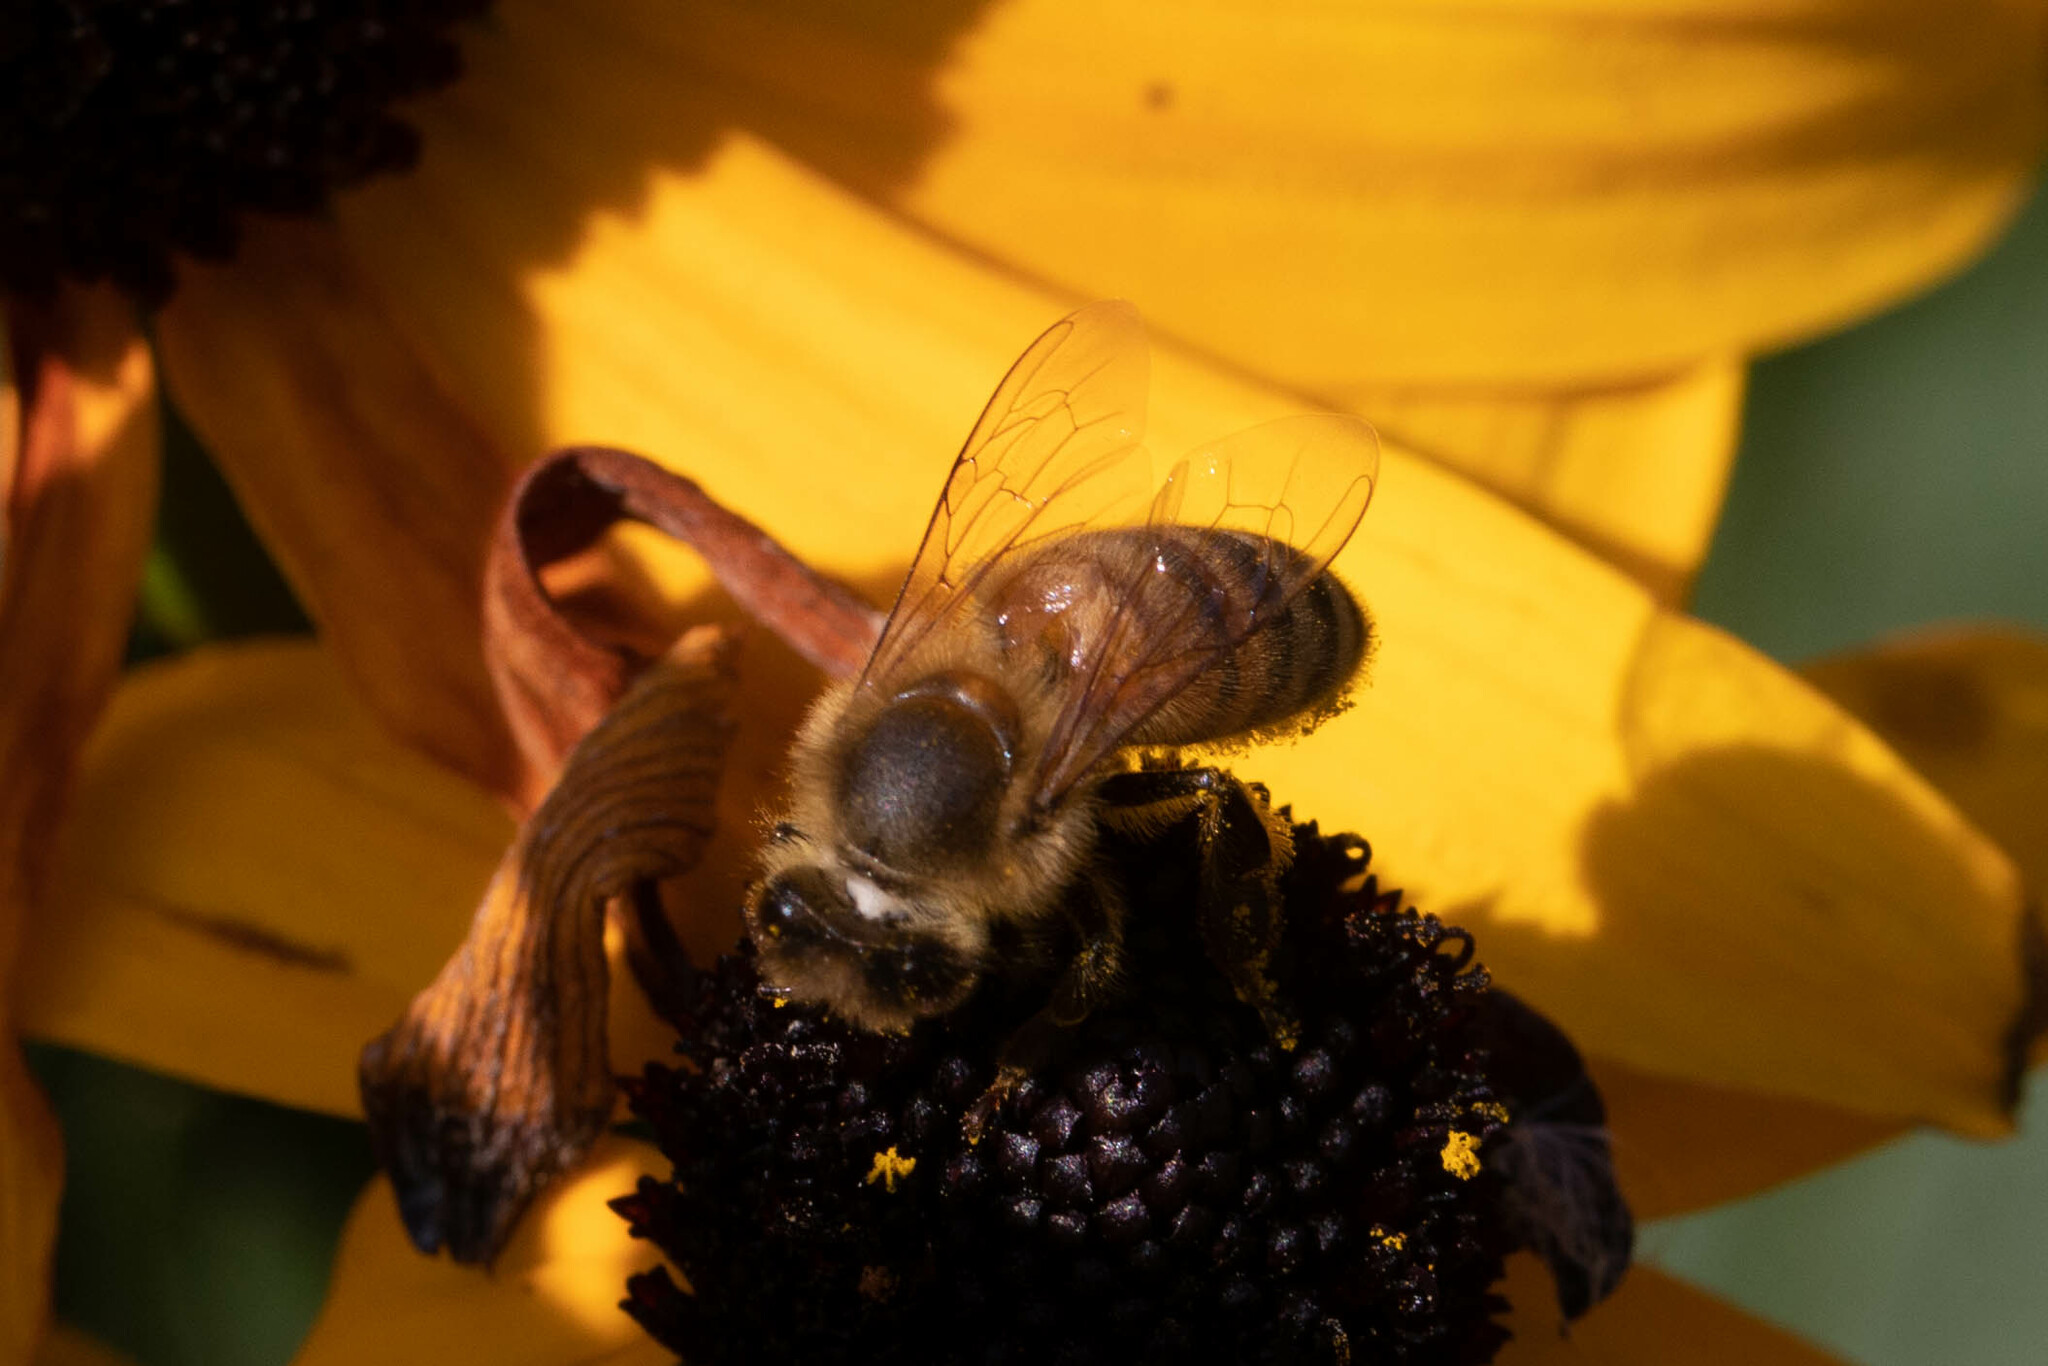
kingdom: Animalia
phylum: Arthropoda
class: Insecta
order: Hymenoptera
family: Apidae
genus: Apis
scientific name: Apis mellifera
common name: Honey bee
